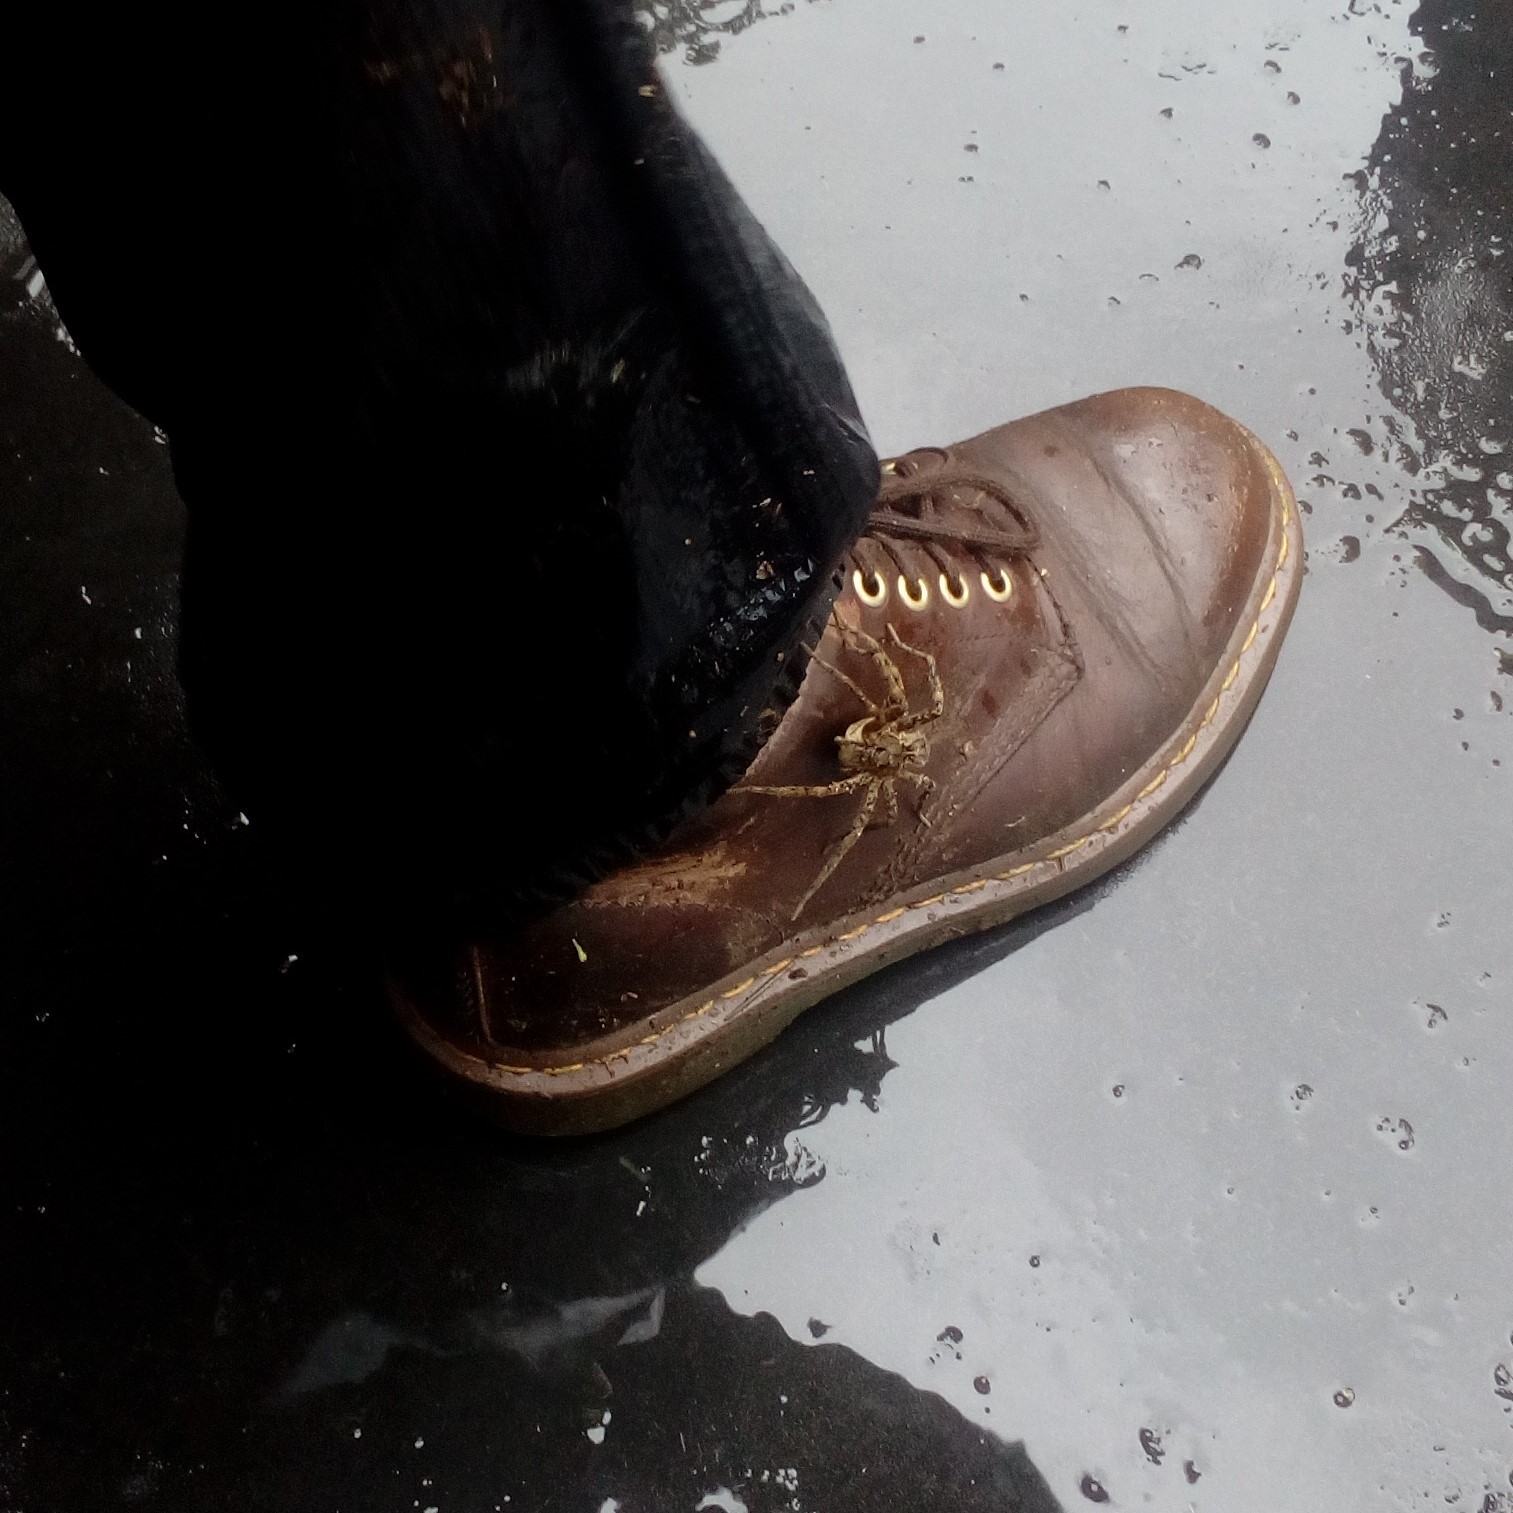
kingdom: Animalia
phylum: Arthropoda
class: Arachnida
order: Araneae
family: Pisauridae
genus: Dolomedes
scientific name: Dolomedes dondalei
